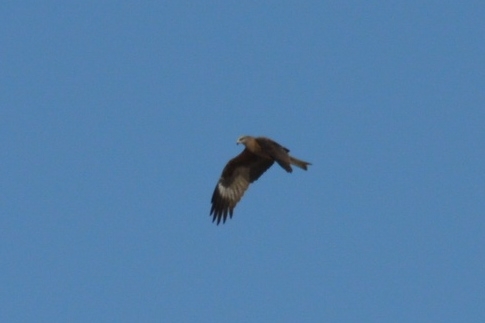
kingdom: Animalia
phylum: Chordata
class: Aves
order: Accipitriformes
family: Accipitridae
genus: Milvus
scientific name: Milvus migrans
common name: Black kite
